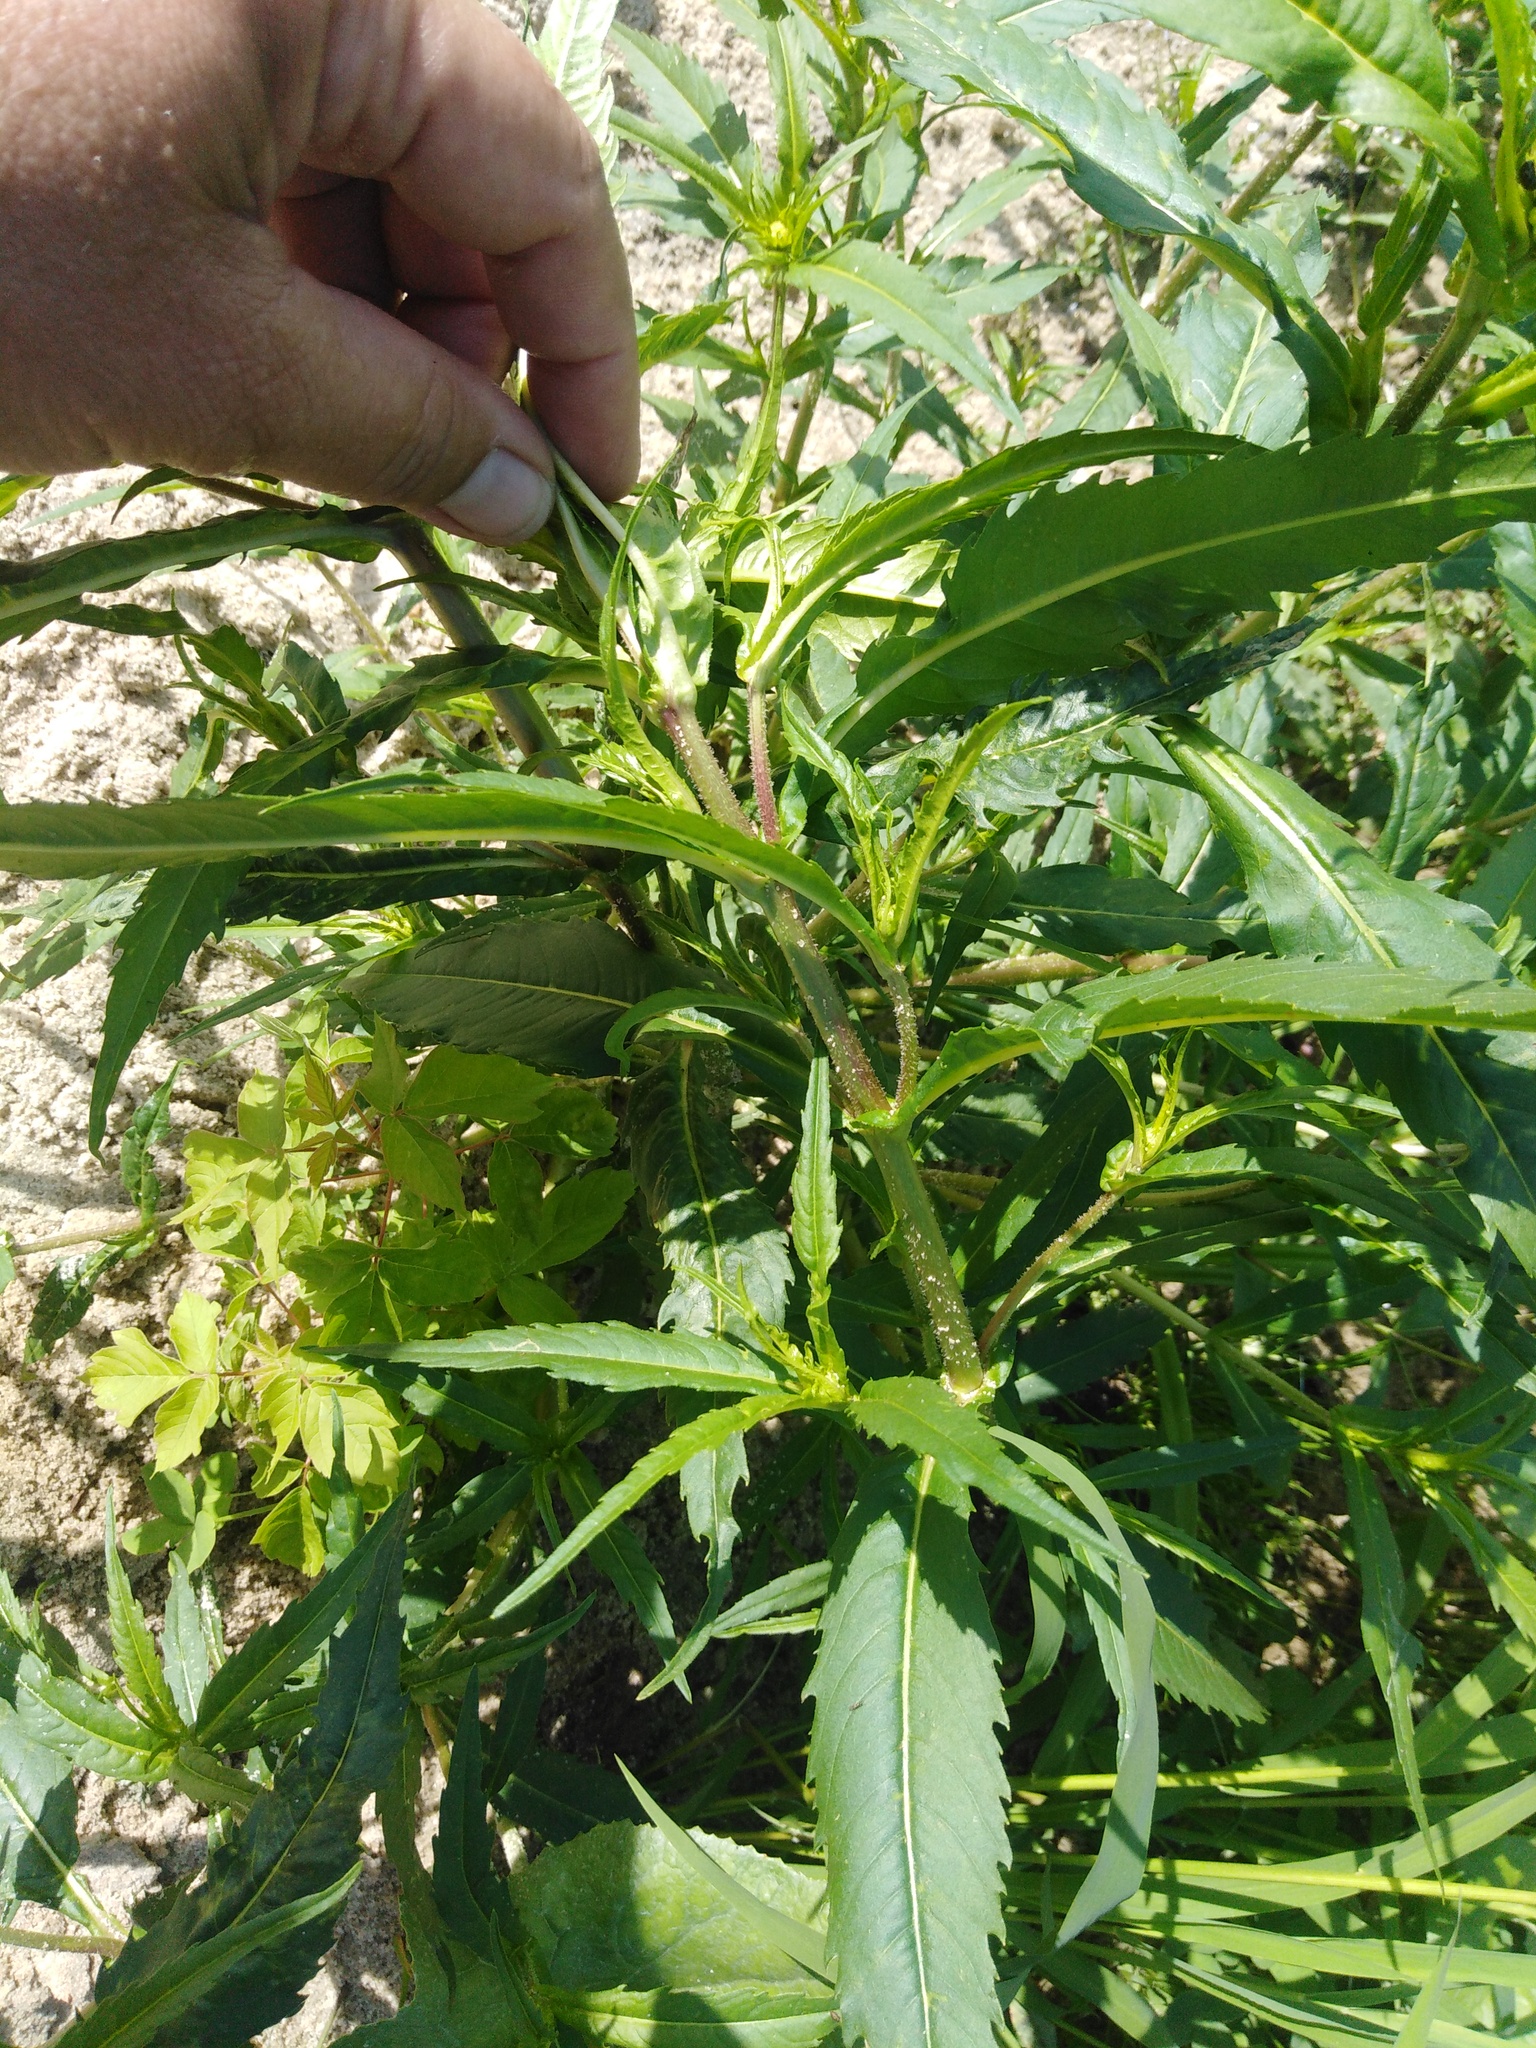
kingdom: Plantae
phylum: Tracheophyta
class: Magnoliopsida
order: Asterales
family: Asteraceae
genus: Bidens
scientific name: Bidens cernua
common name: Nodding bur-marigold
